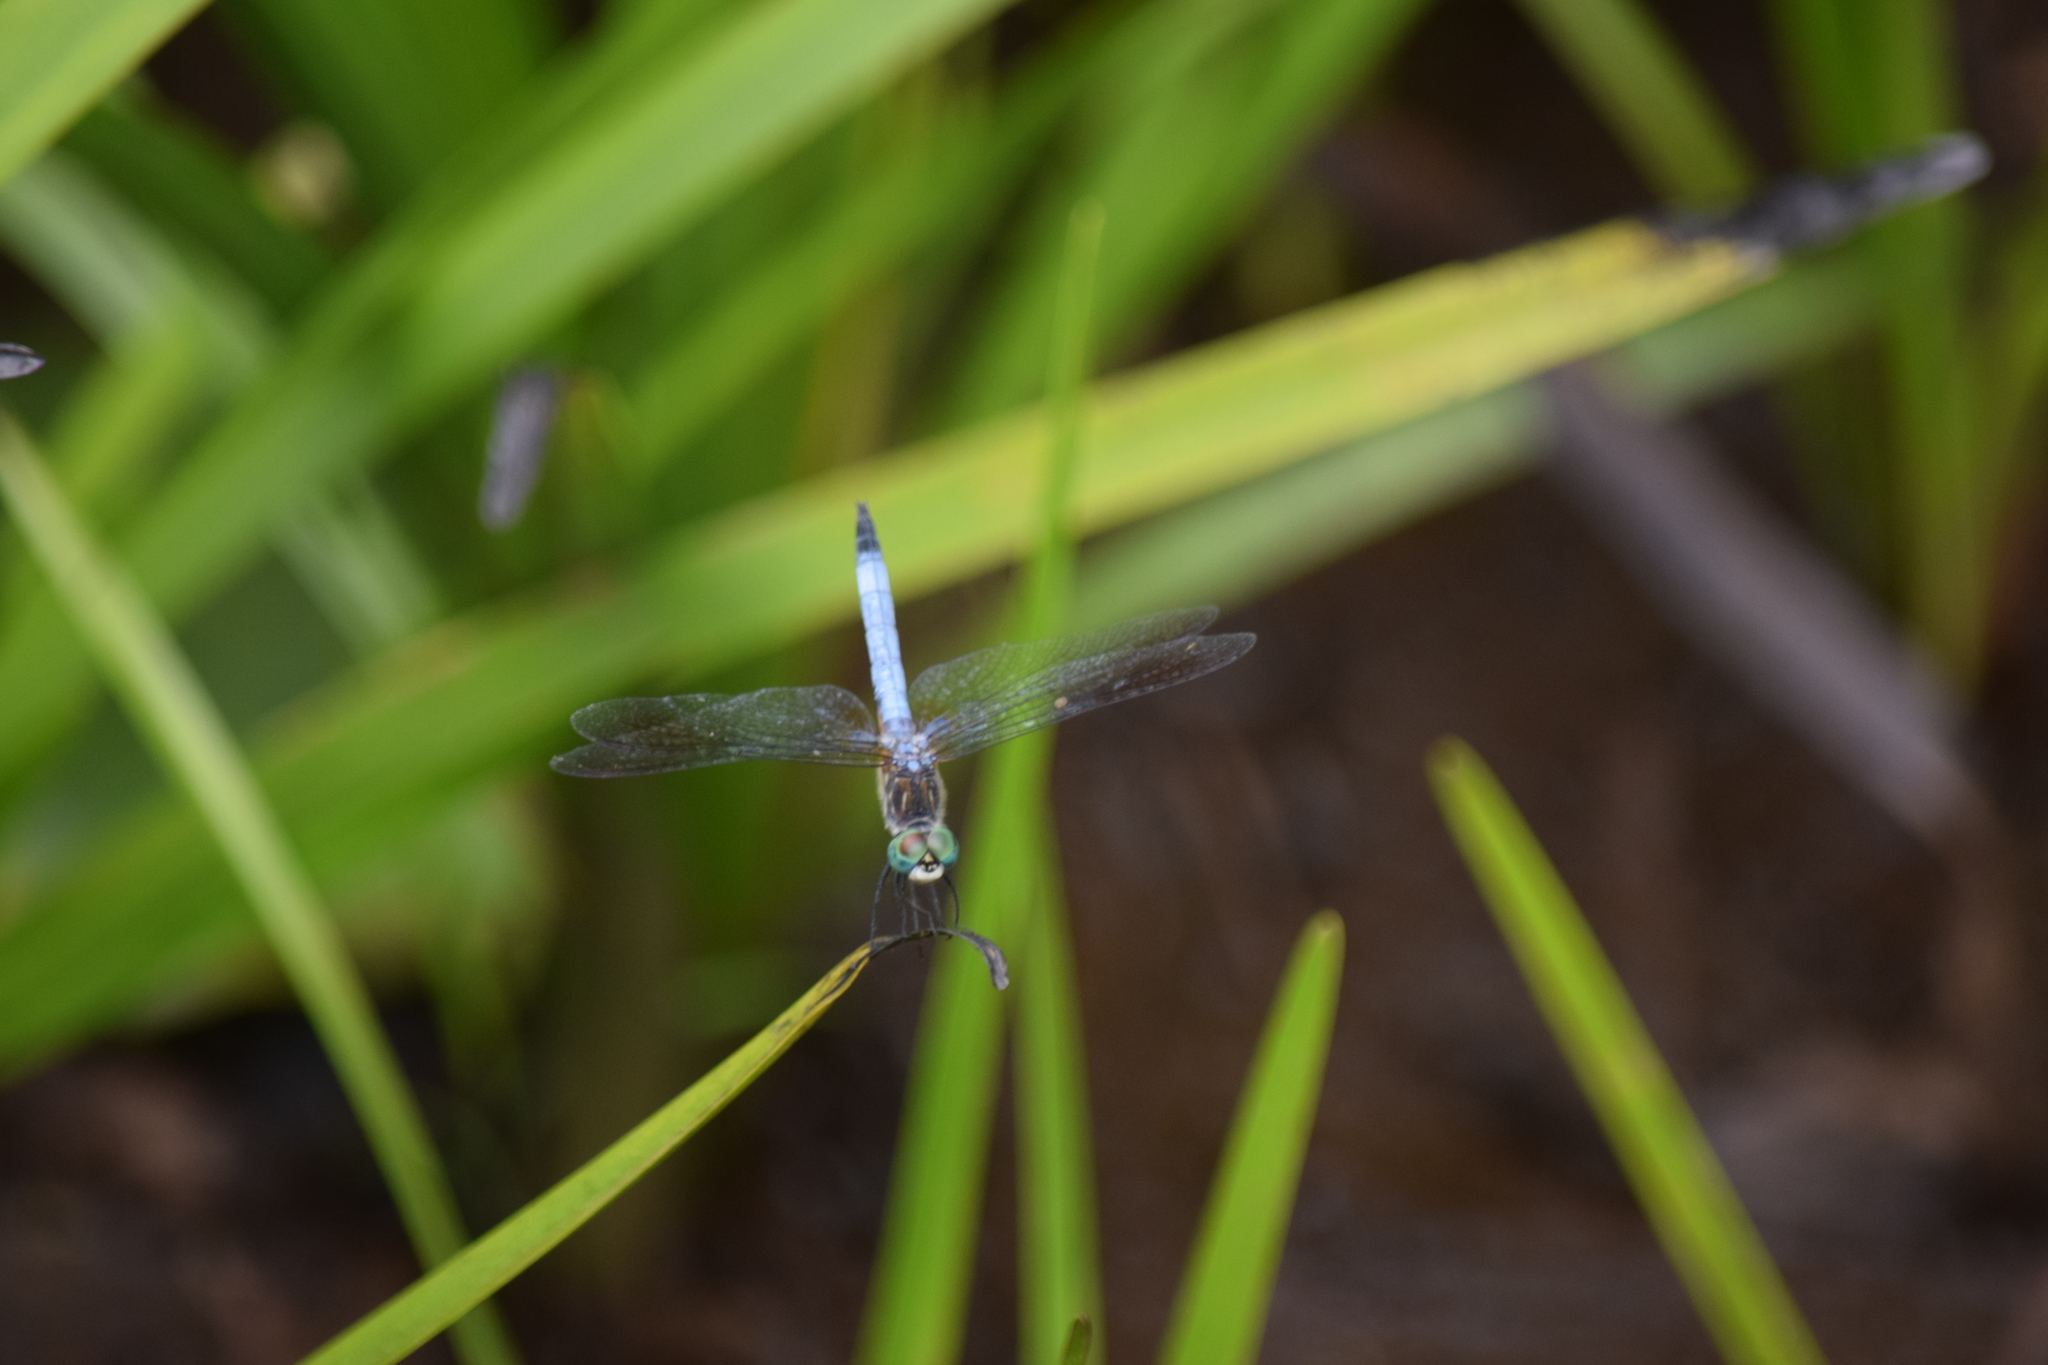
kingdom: Animalia
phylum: Arthropoda
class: Insecta
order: Odonata
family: Libellulidae
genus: Pachydiplax
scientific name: Pachydiplax longipennis
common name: Blue dasher
